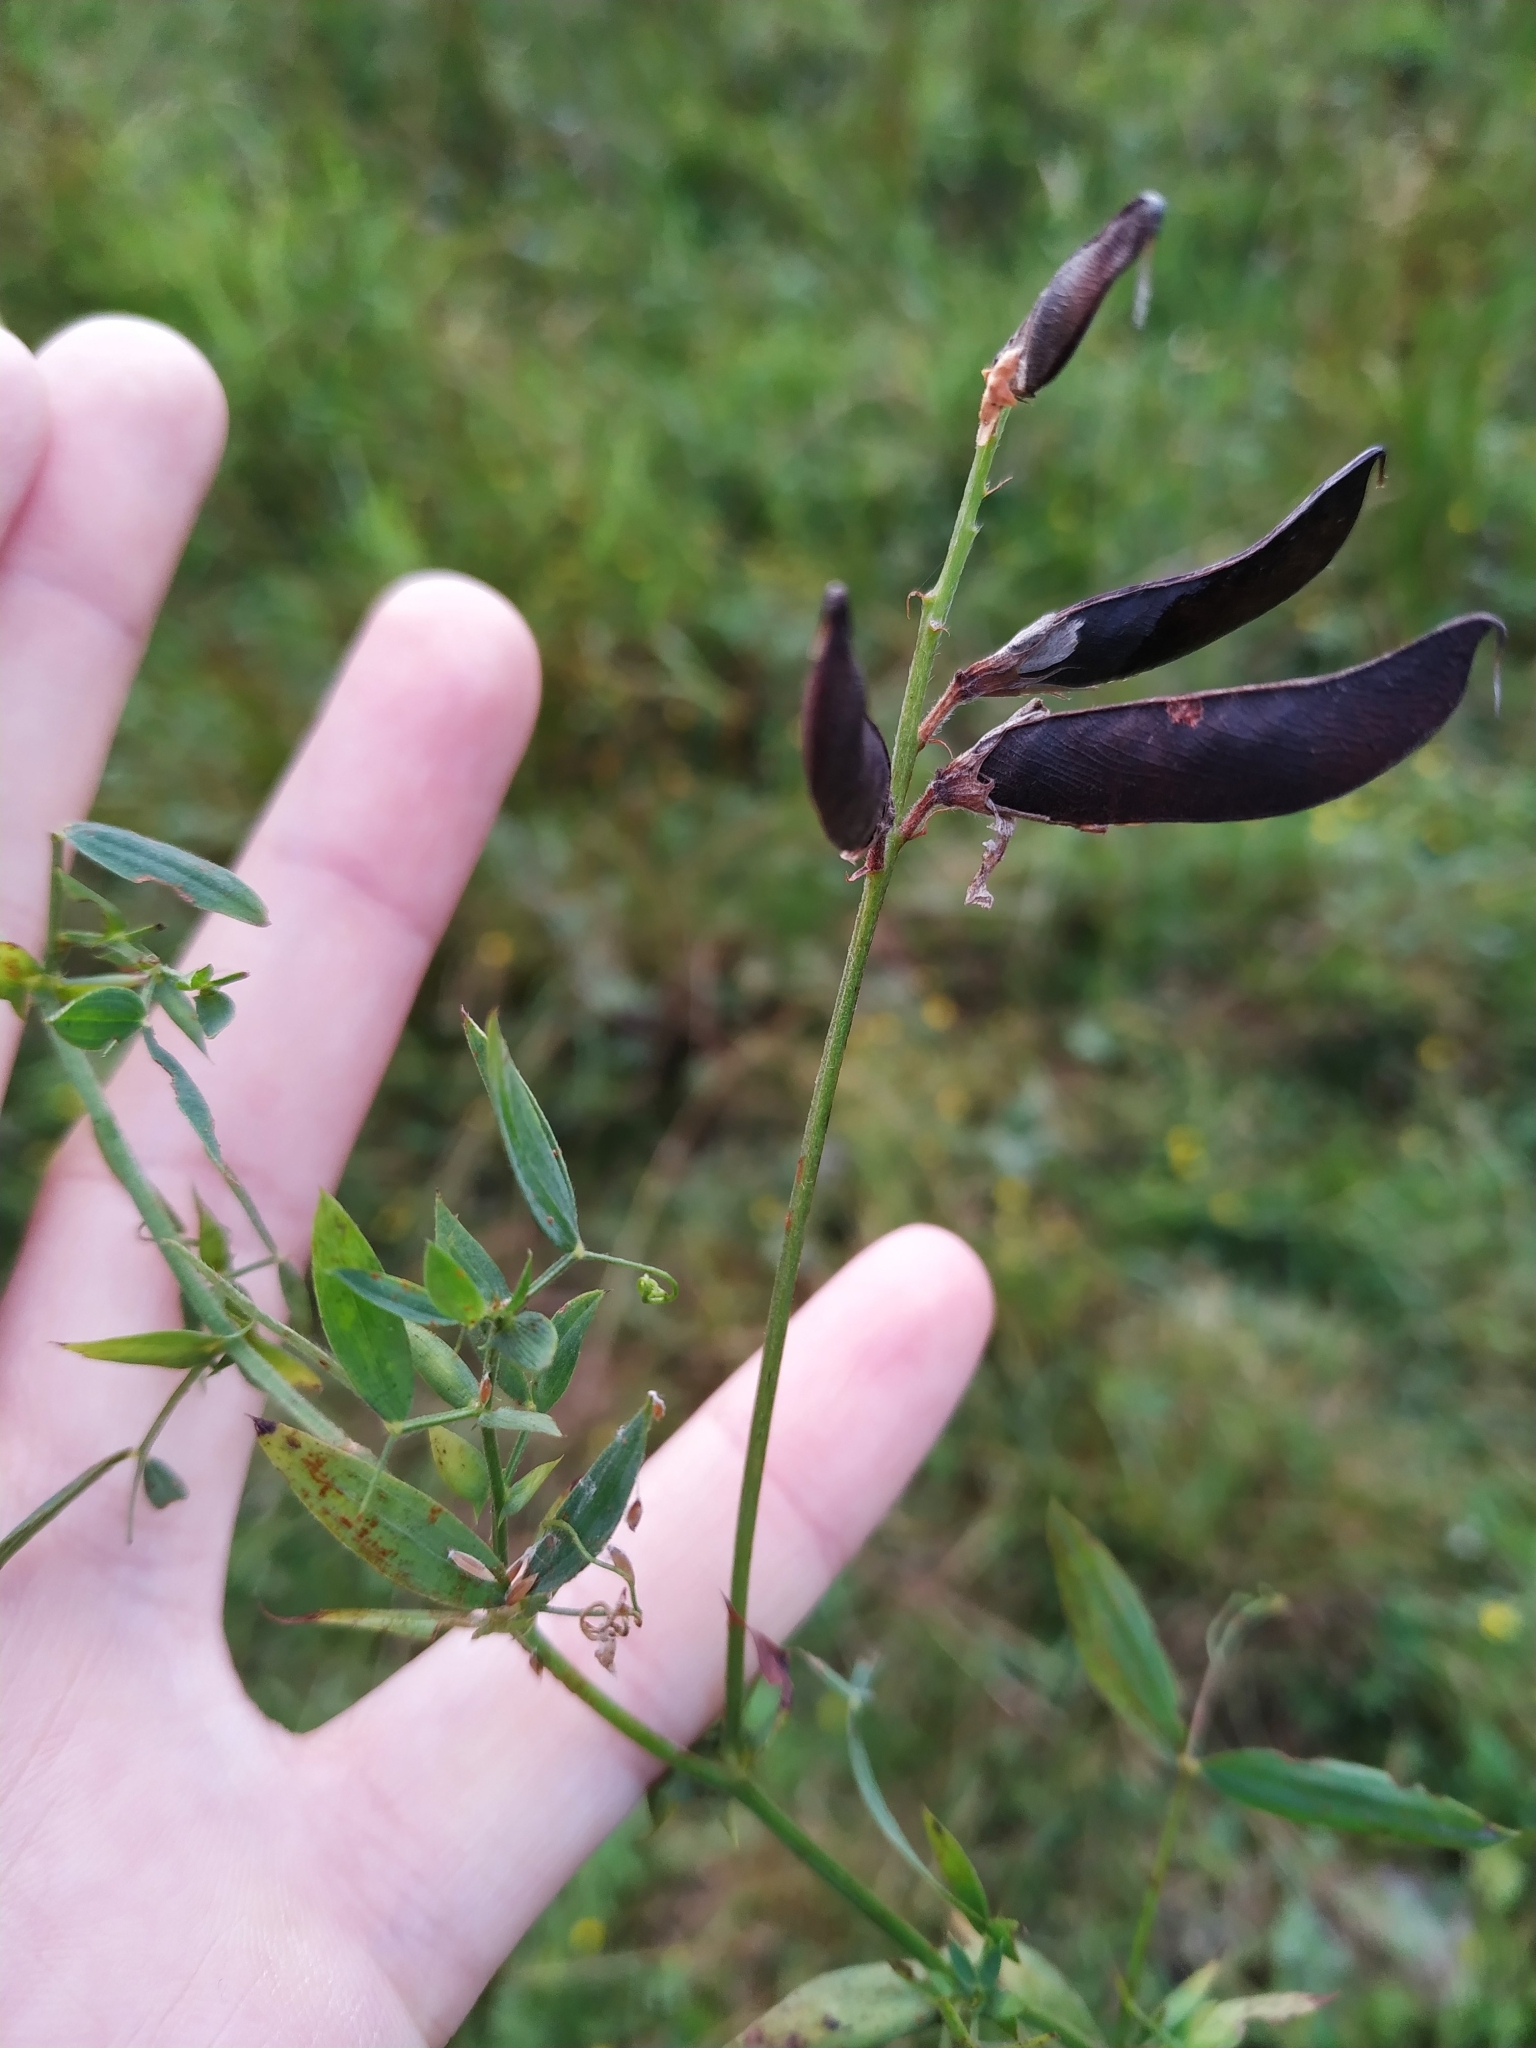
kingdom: Plantae
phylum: Tracheophyta
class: Magnoliopsida
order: Fabales
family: Fabaceae
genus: Lathyrus
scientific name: Lathyrus pratensis
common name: Meadow vetchling
